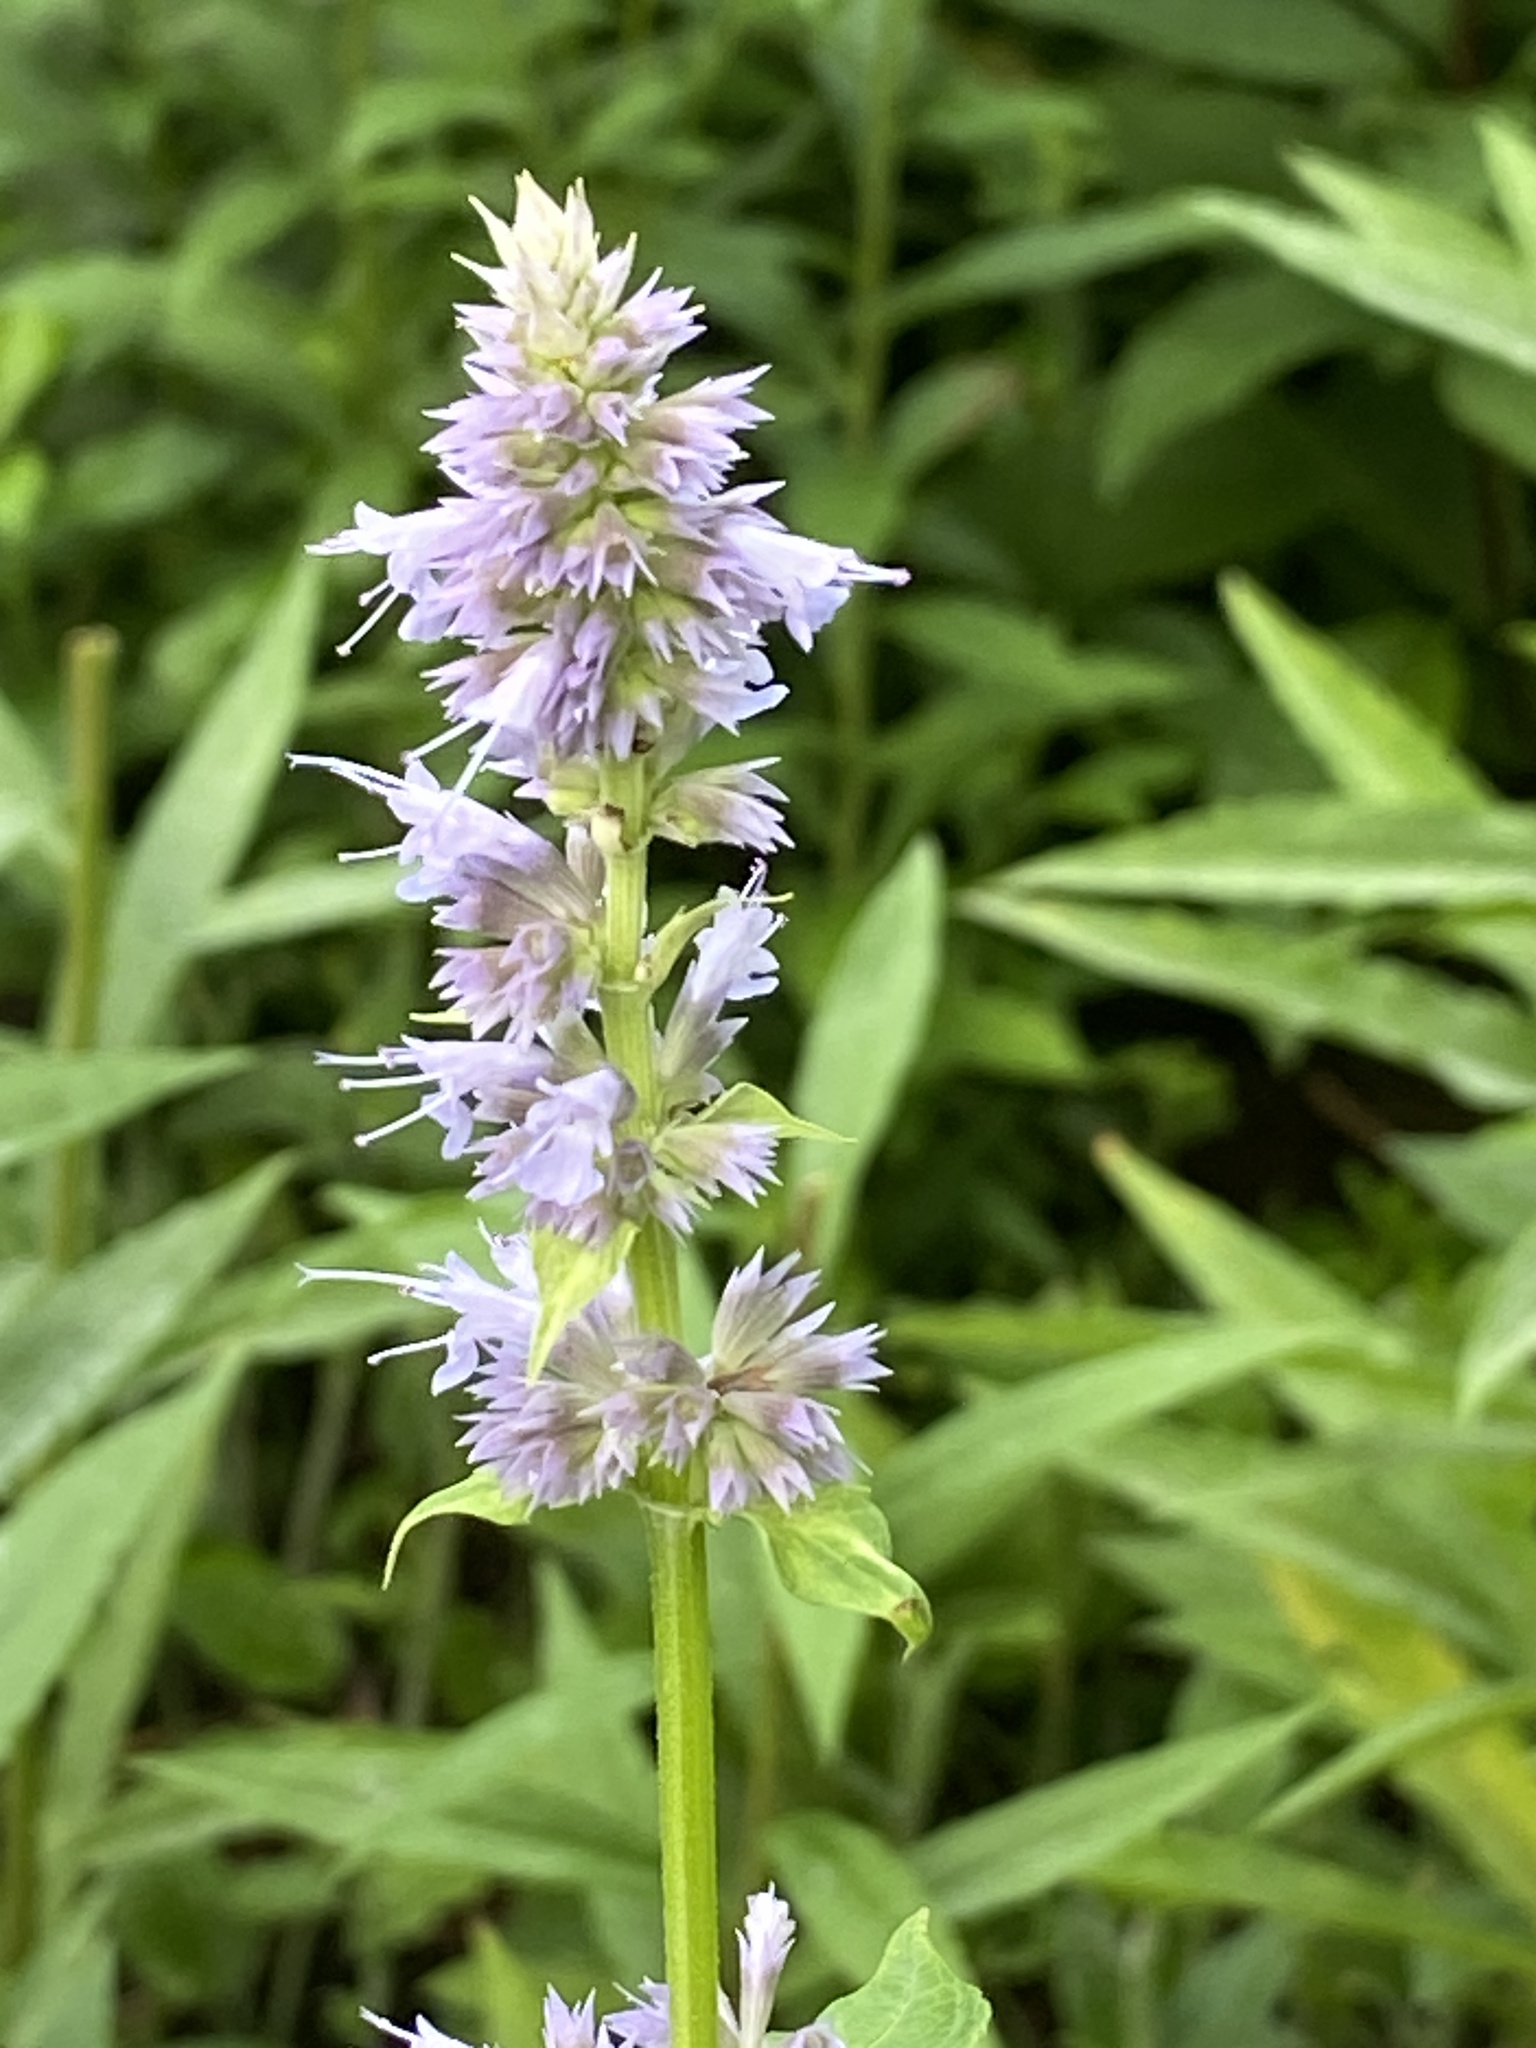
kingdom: Plantae
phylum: Tracheophyta
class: Magnoliopsida
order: Lamiales
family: Lamiaceae
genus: Agastache
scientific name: Agastache foeniculum
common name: Anise hyssop
